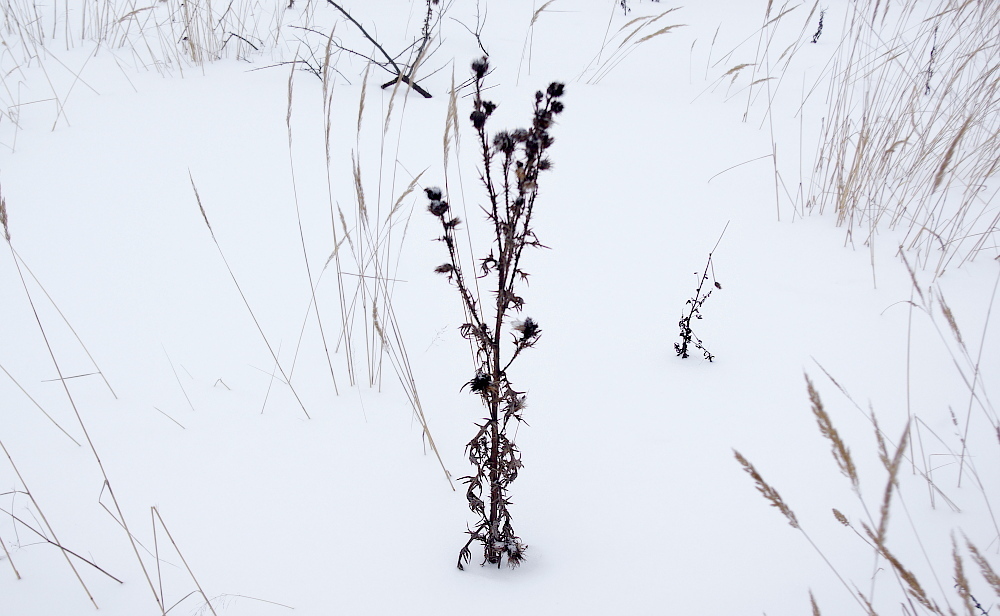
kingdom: Plantae
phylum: Tracheophyta
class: Magnoliopsida
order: Asterales
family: Asteraceae
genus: Cirsium
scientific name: Cirsium vulgare
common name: Bull thistle
